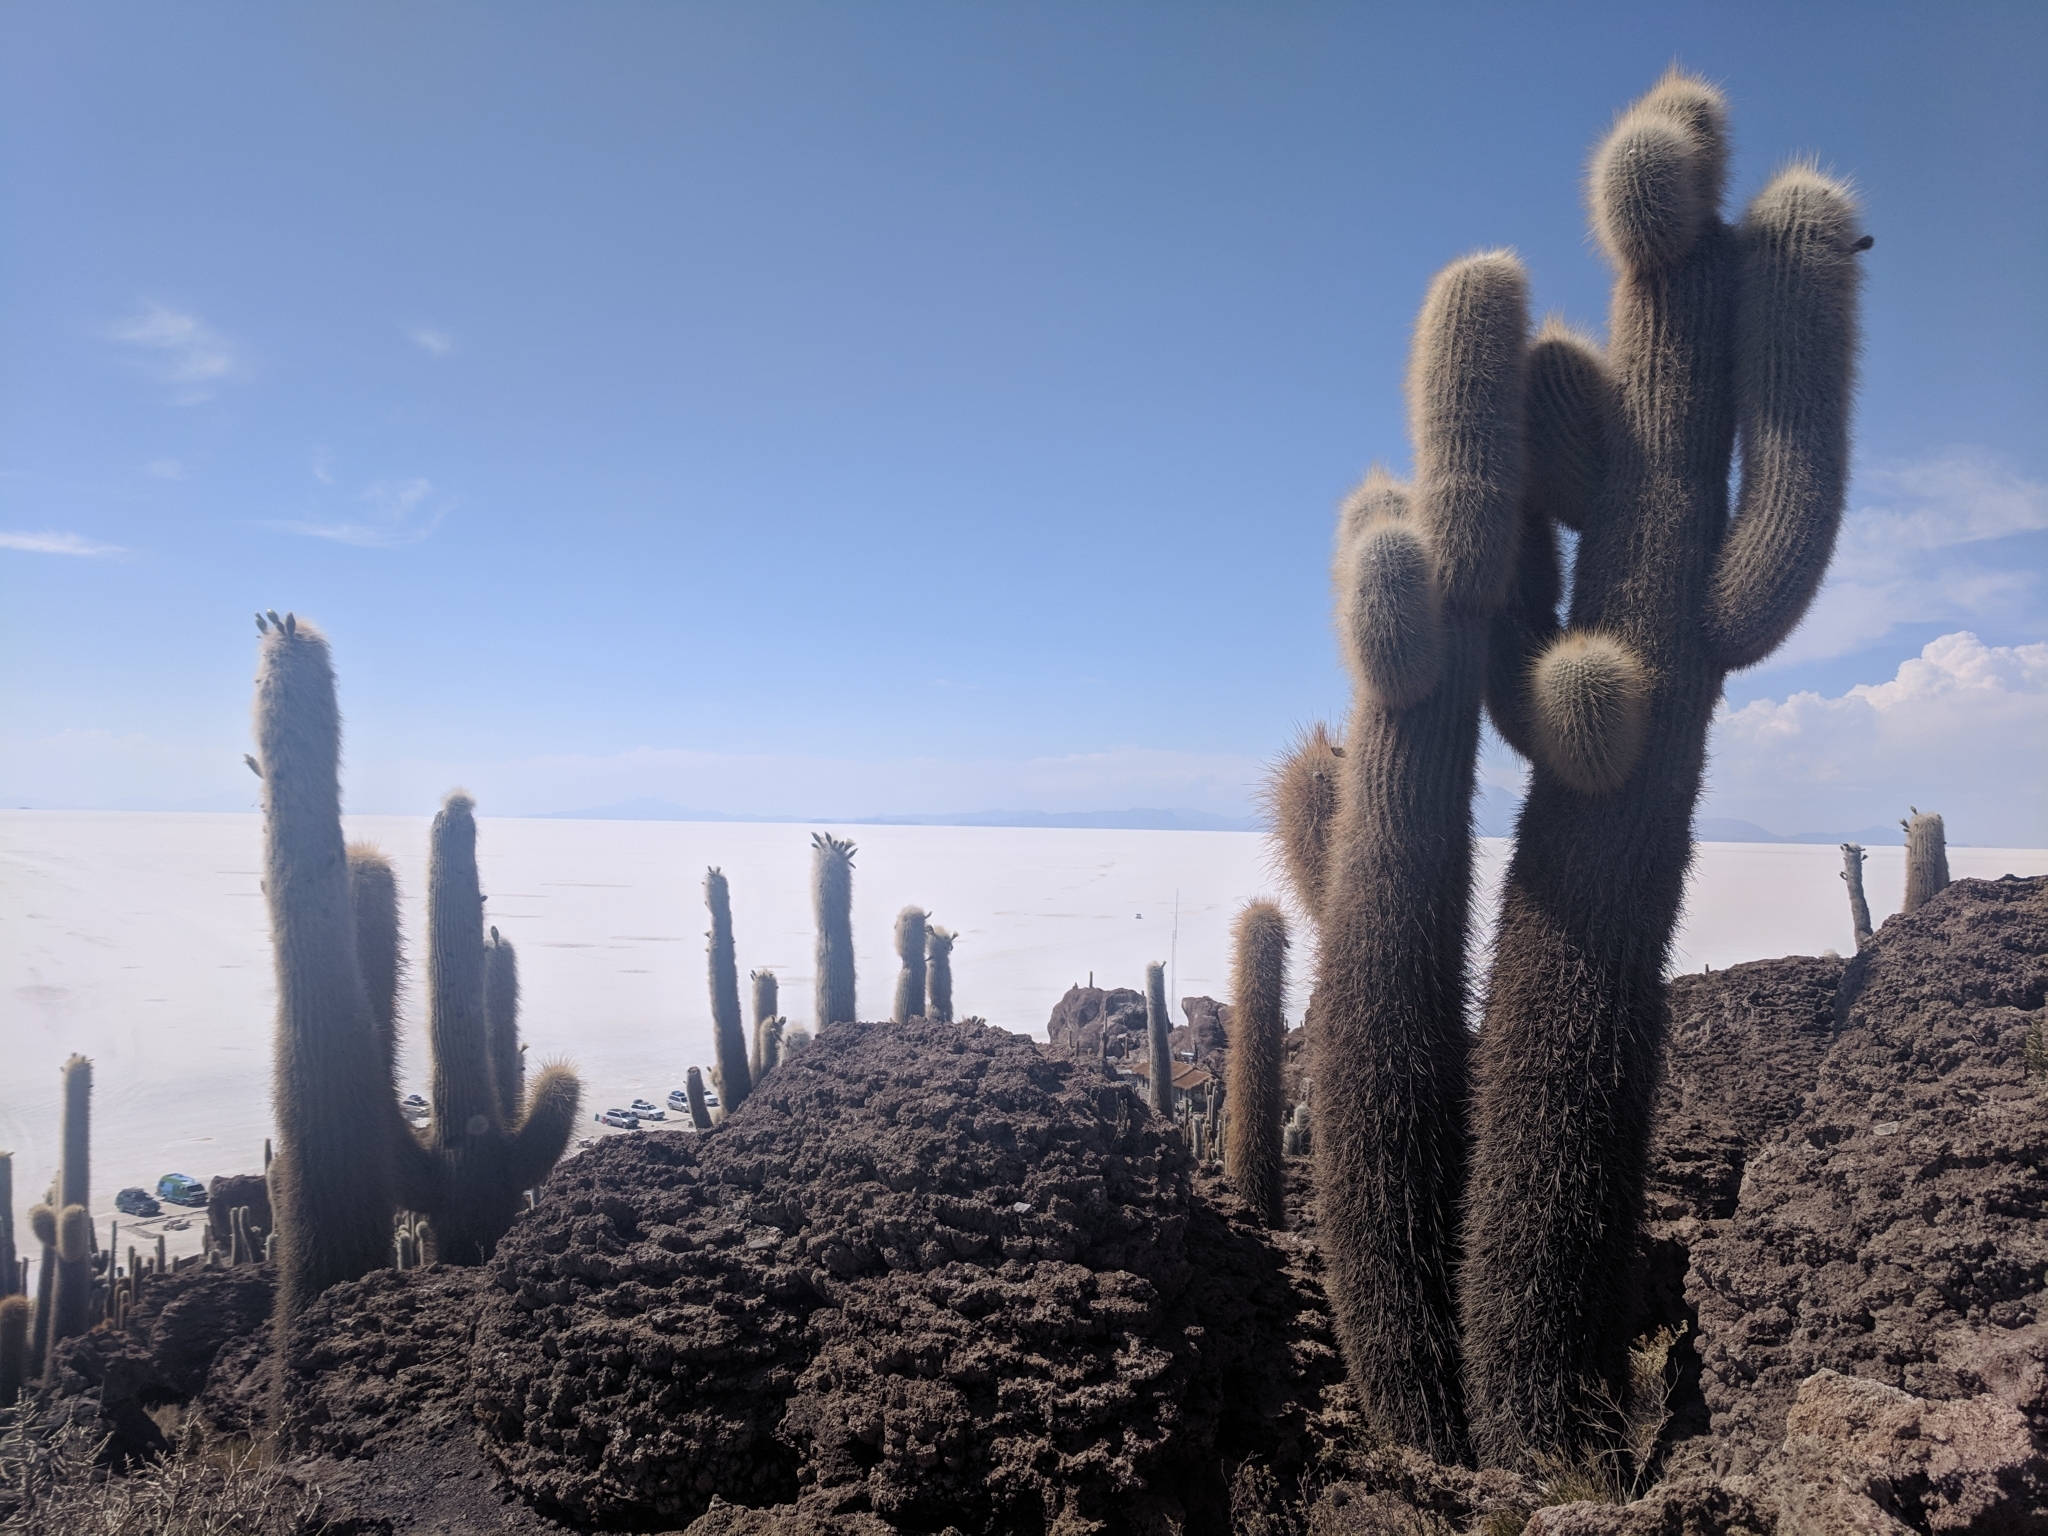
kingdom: Plantae
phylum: Tracheophyta
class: Magnoliopsida
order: Caryophyllales
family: Cactaceae
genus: Leucostele
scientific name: Leucostele atacamensis
